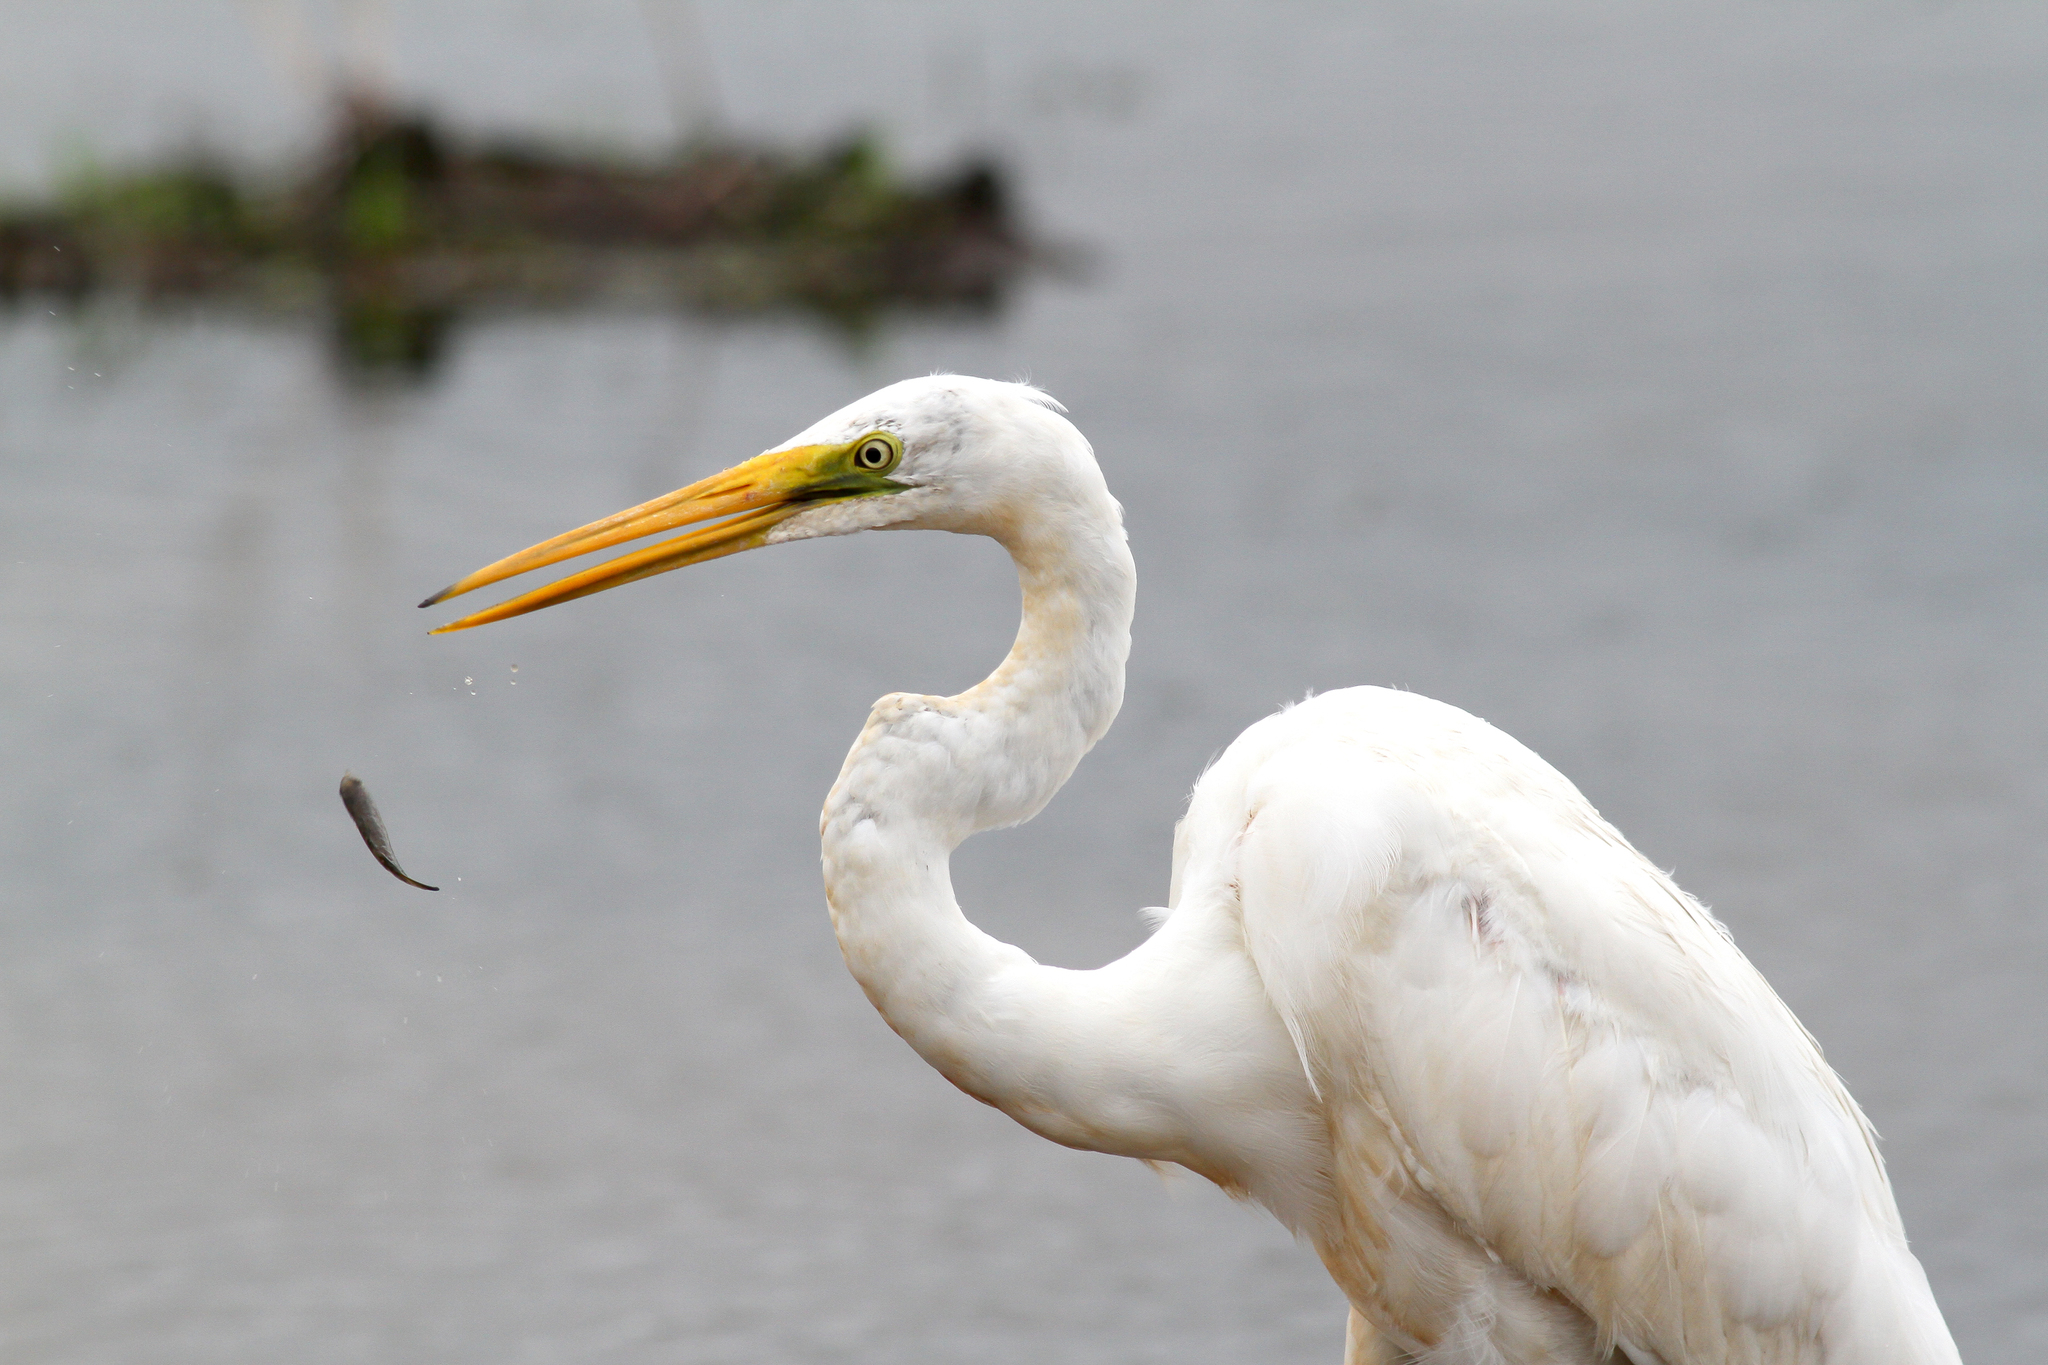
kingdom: Animalia
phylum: Chordata
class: Aves
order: Pelecaniformes
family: Ardeidae
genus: Ardea
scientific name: Ardea alba
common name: Great egret
